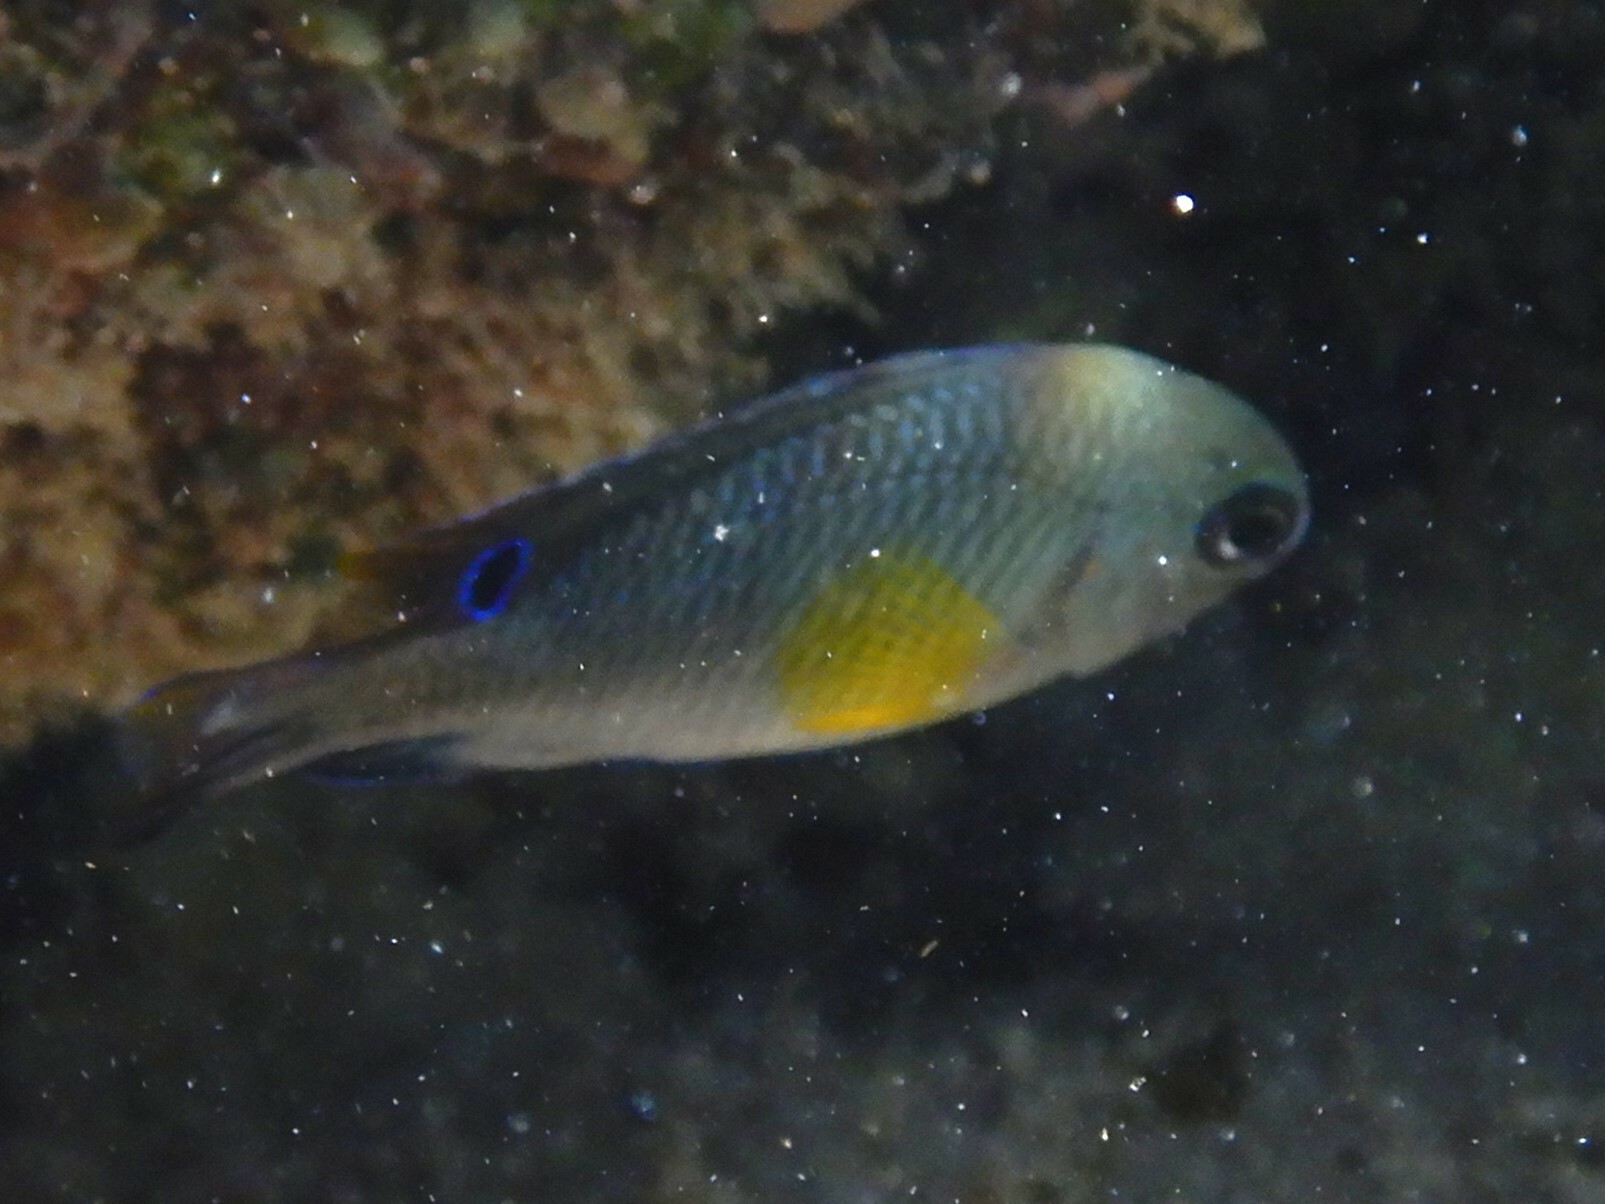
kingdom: Animalia
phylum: Chordata
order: Perciformes
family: Pomacentridae
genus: Chrysiptera
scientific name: Chrysiptera unimaculata
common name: Onespot demoiselle
